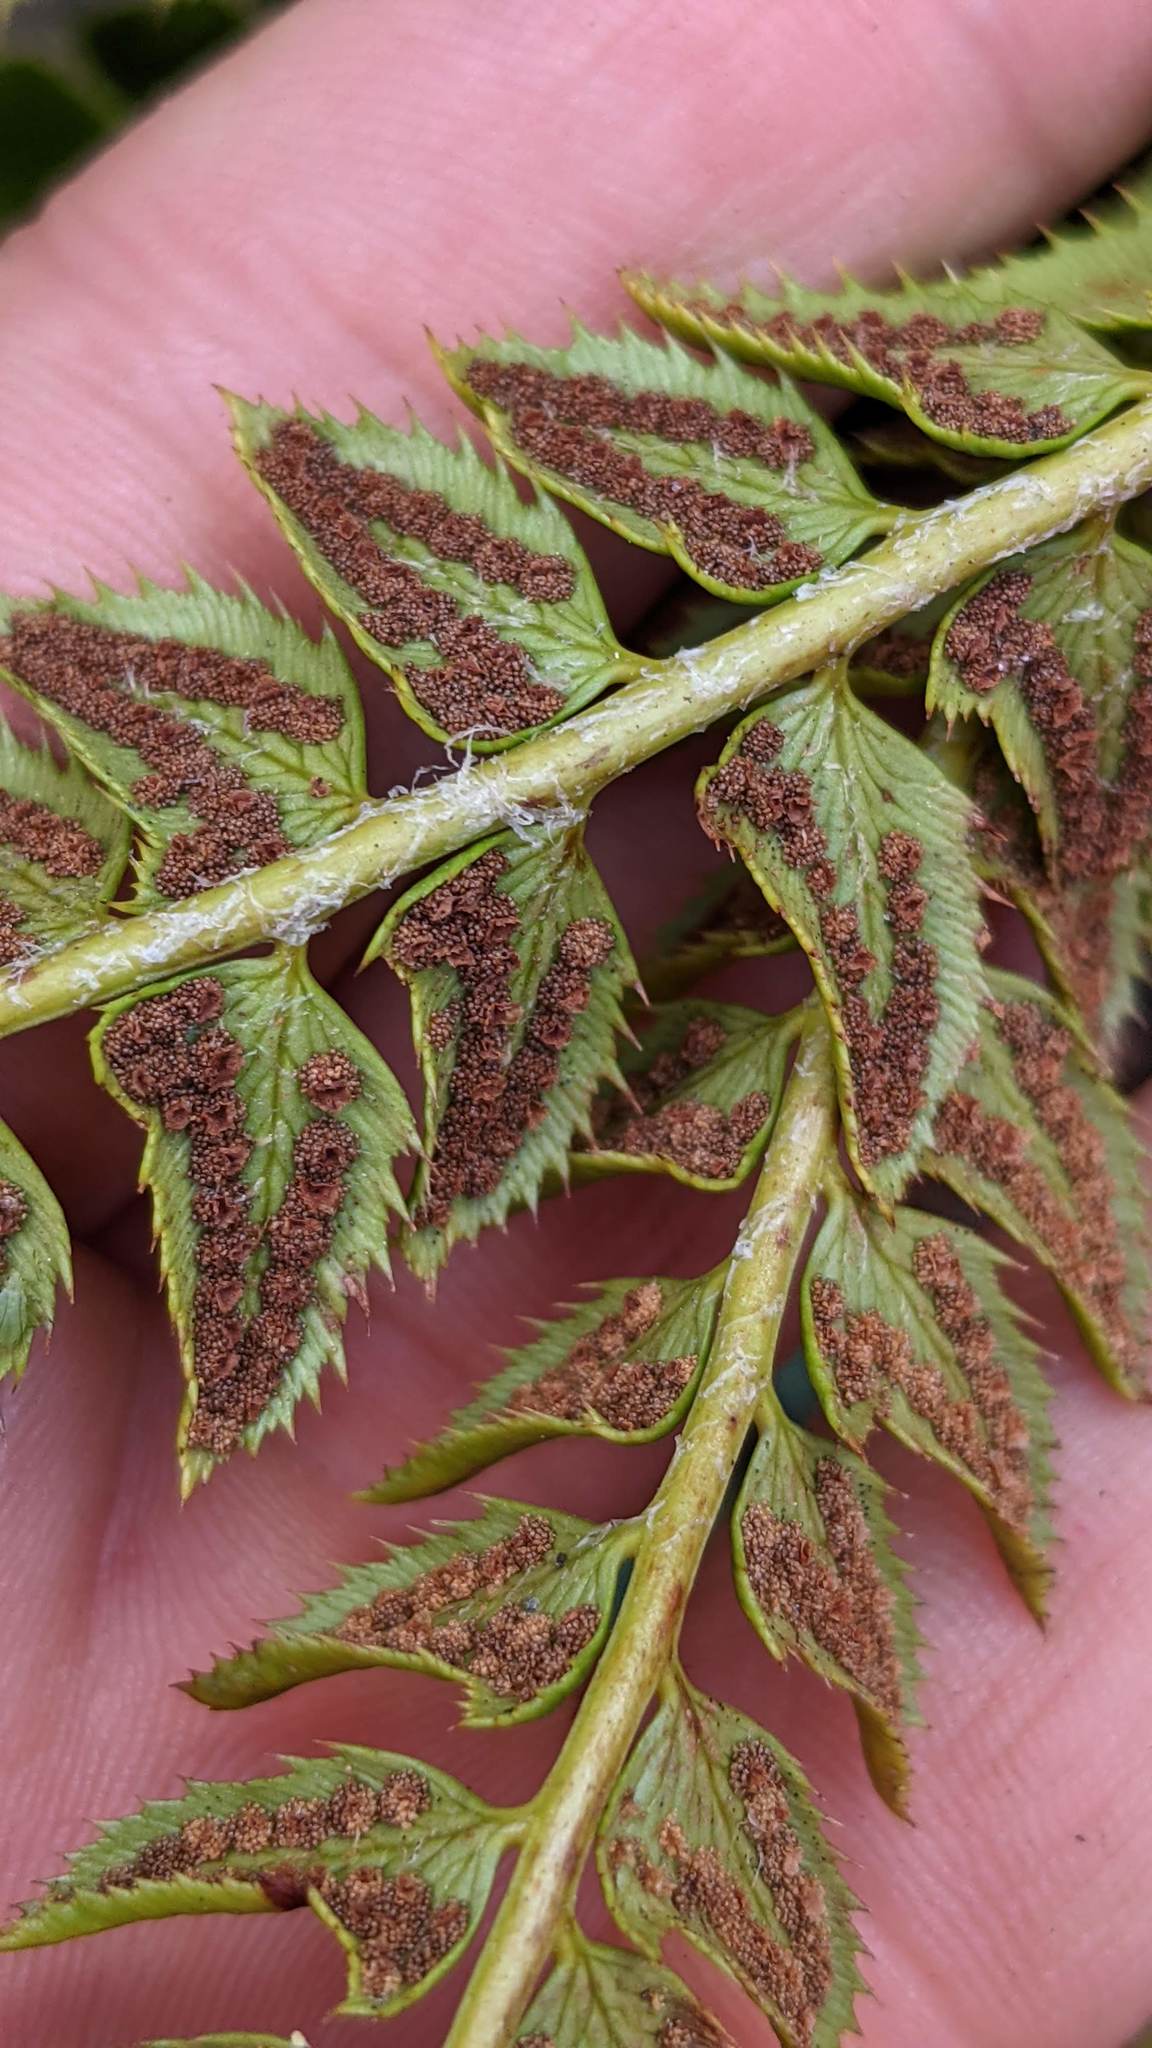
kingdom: Plantae
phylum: Tracheophyta
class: Polypodiopsida
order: Polypodiales
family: Dryopteridaceae
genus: Polystichum
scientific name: Polystichum lonchitis
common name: Holly fern
